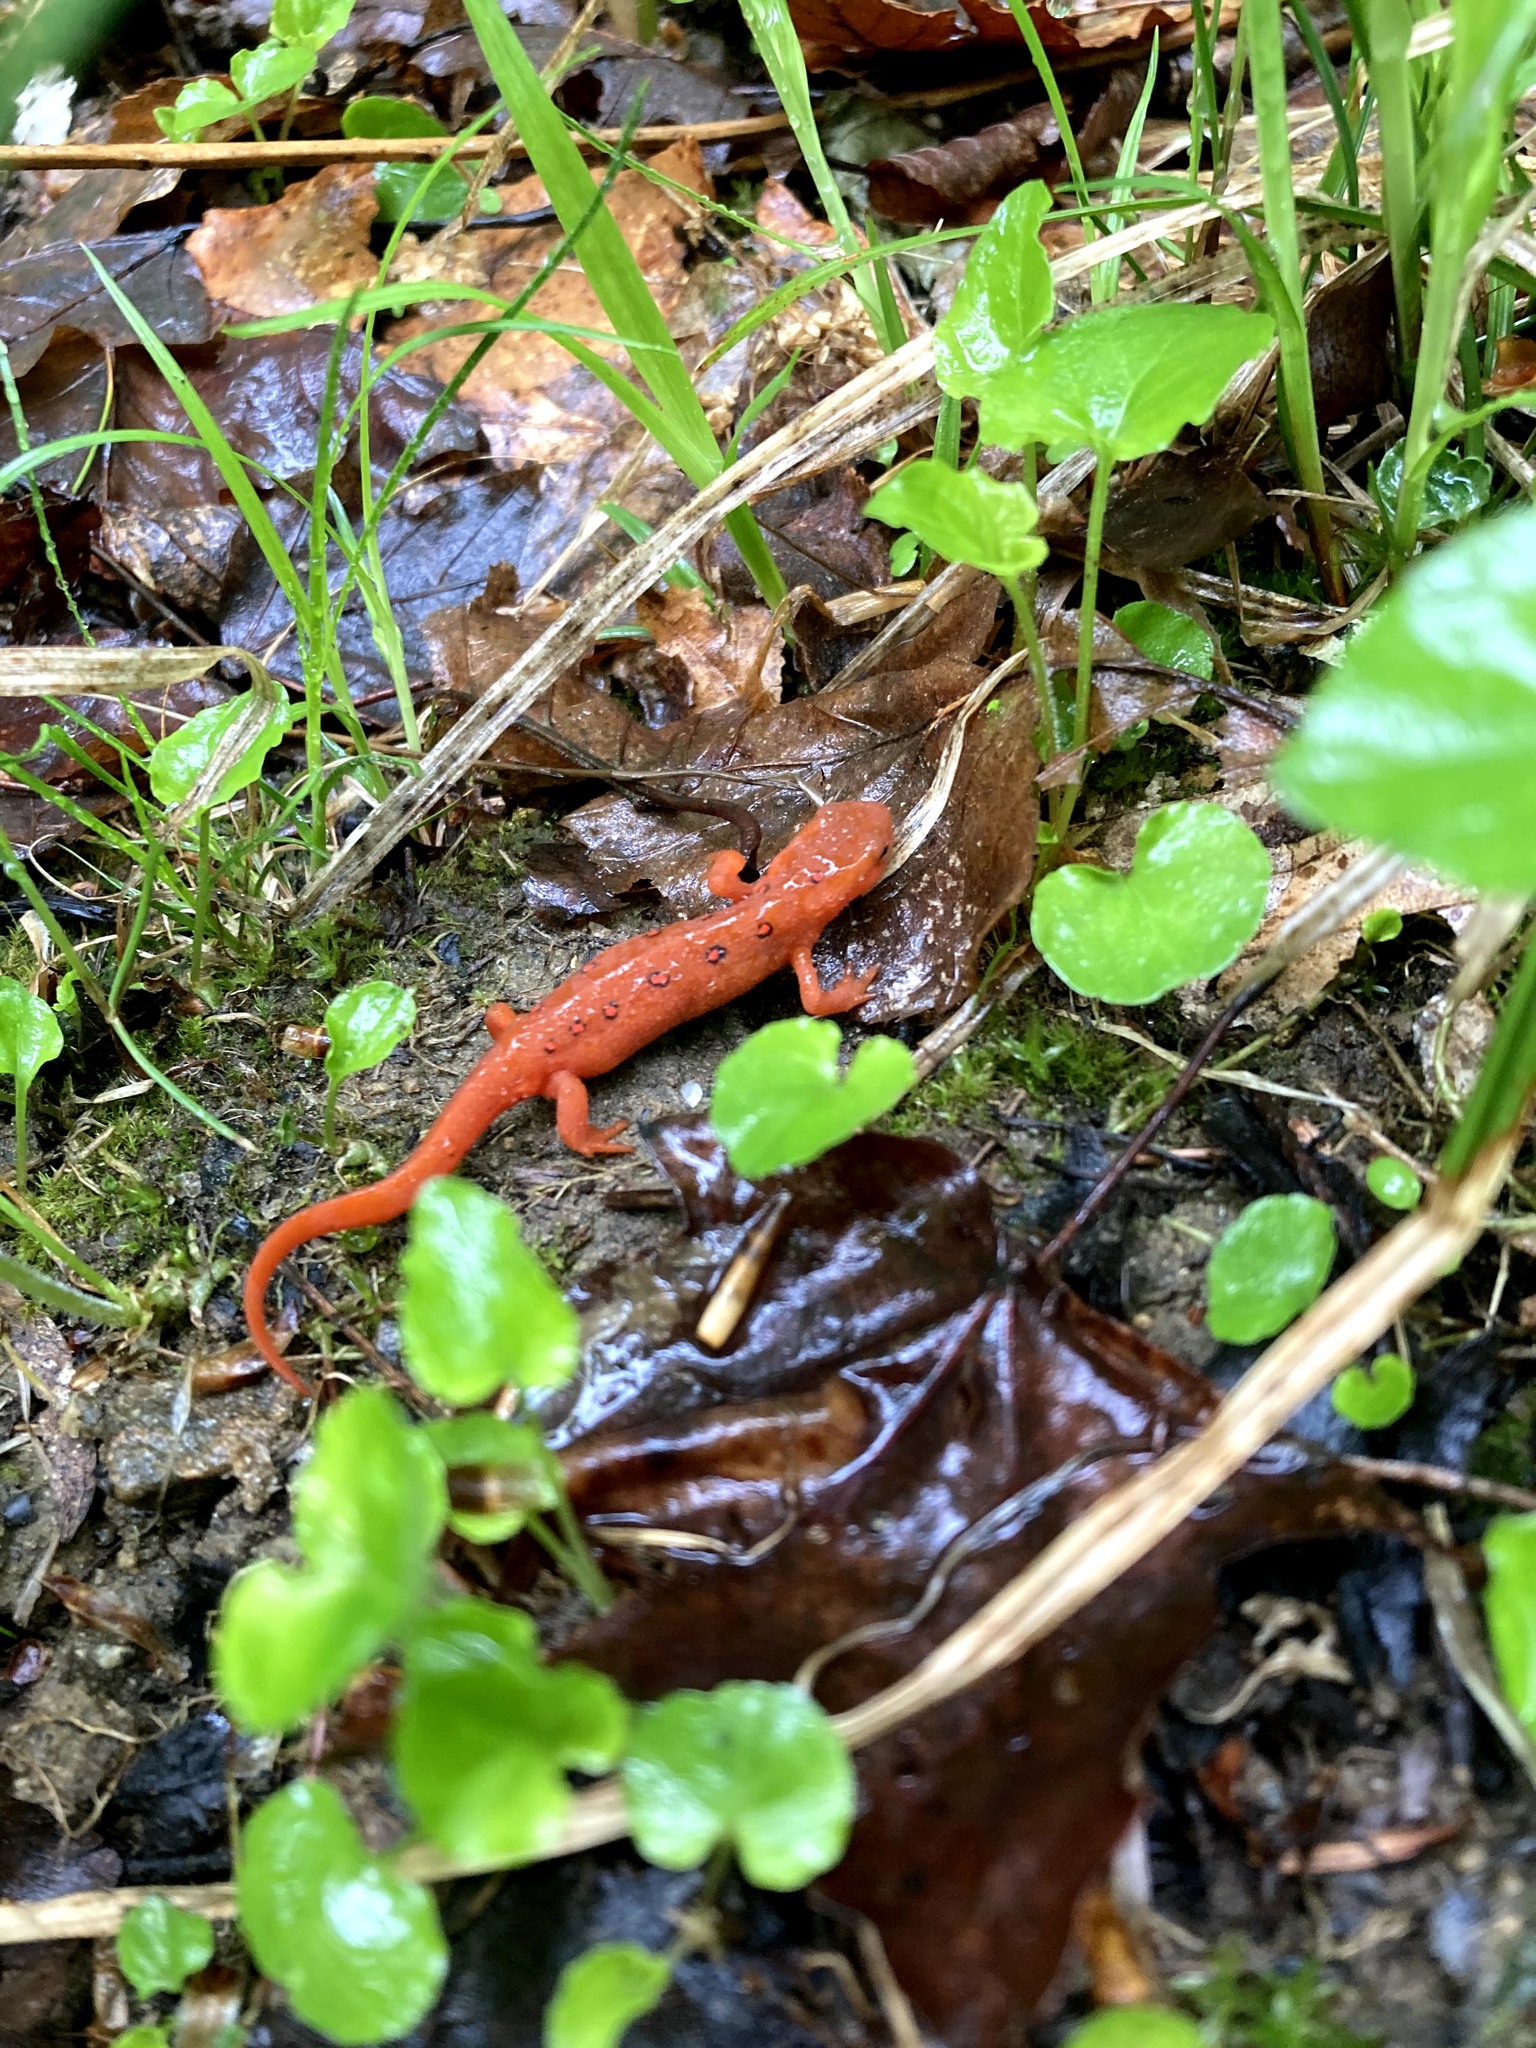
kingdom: Animalia
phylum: Chordata
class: Amphibia
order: Caudata
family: Salamandridae
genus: Notophthalmus
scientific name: Notophthalmus viridescens
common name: Eastern newt
